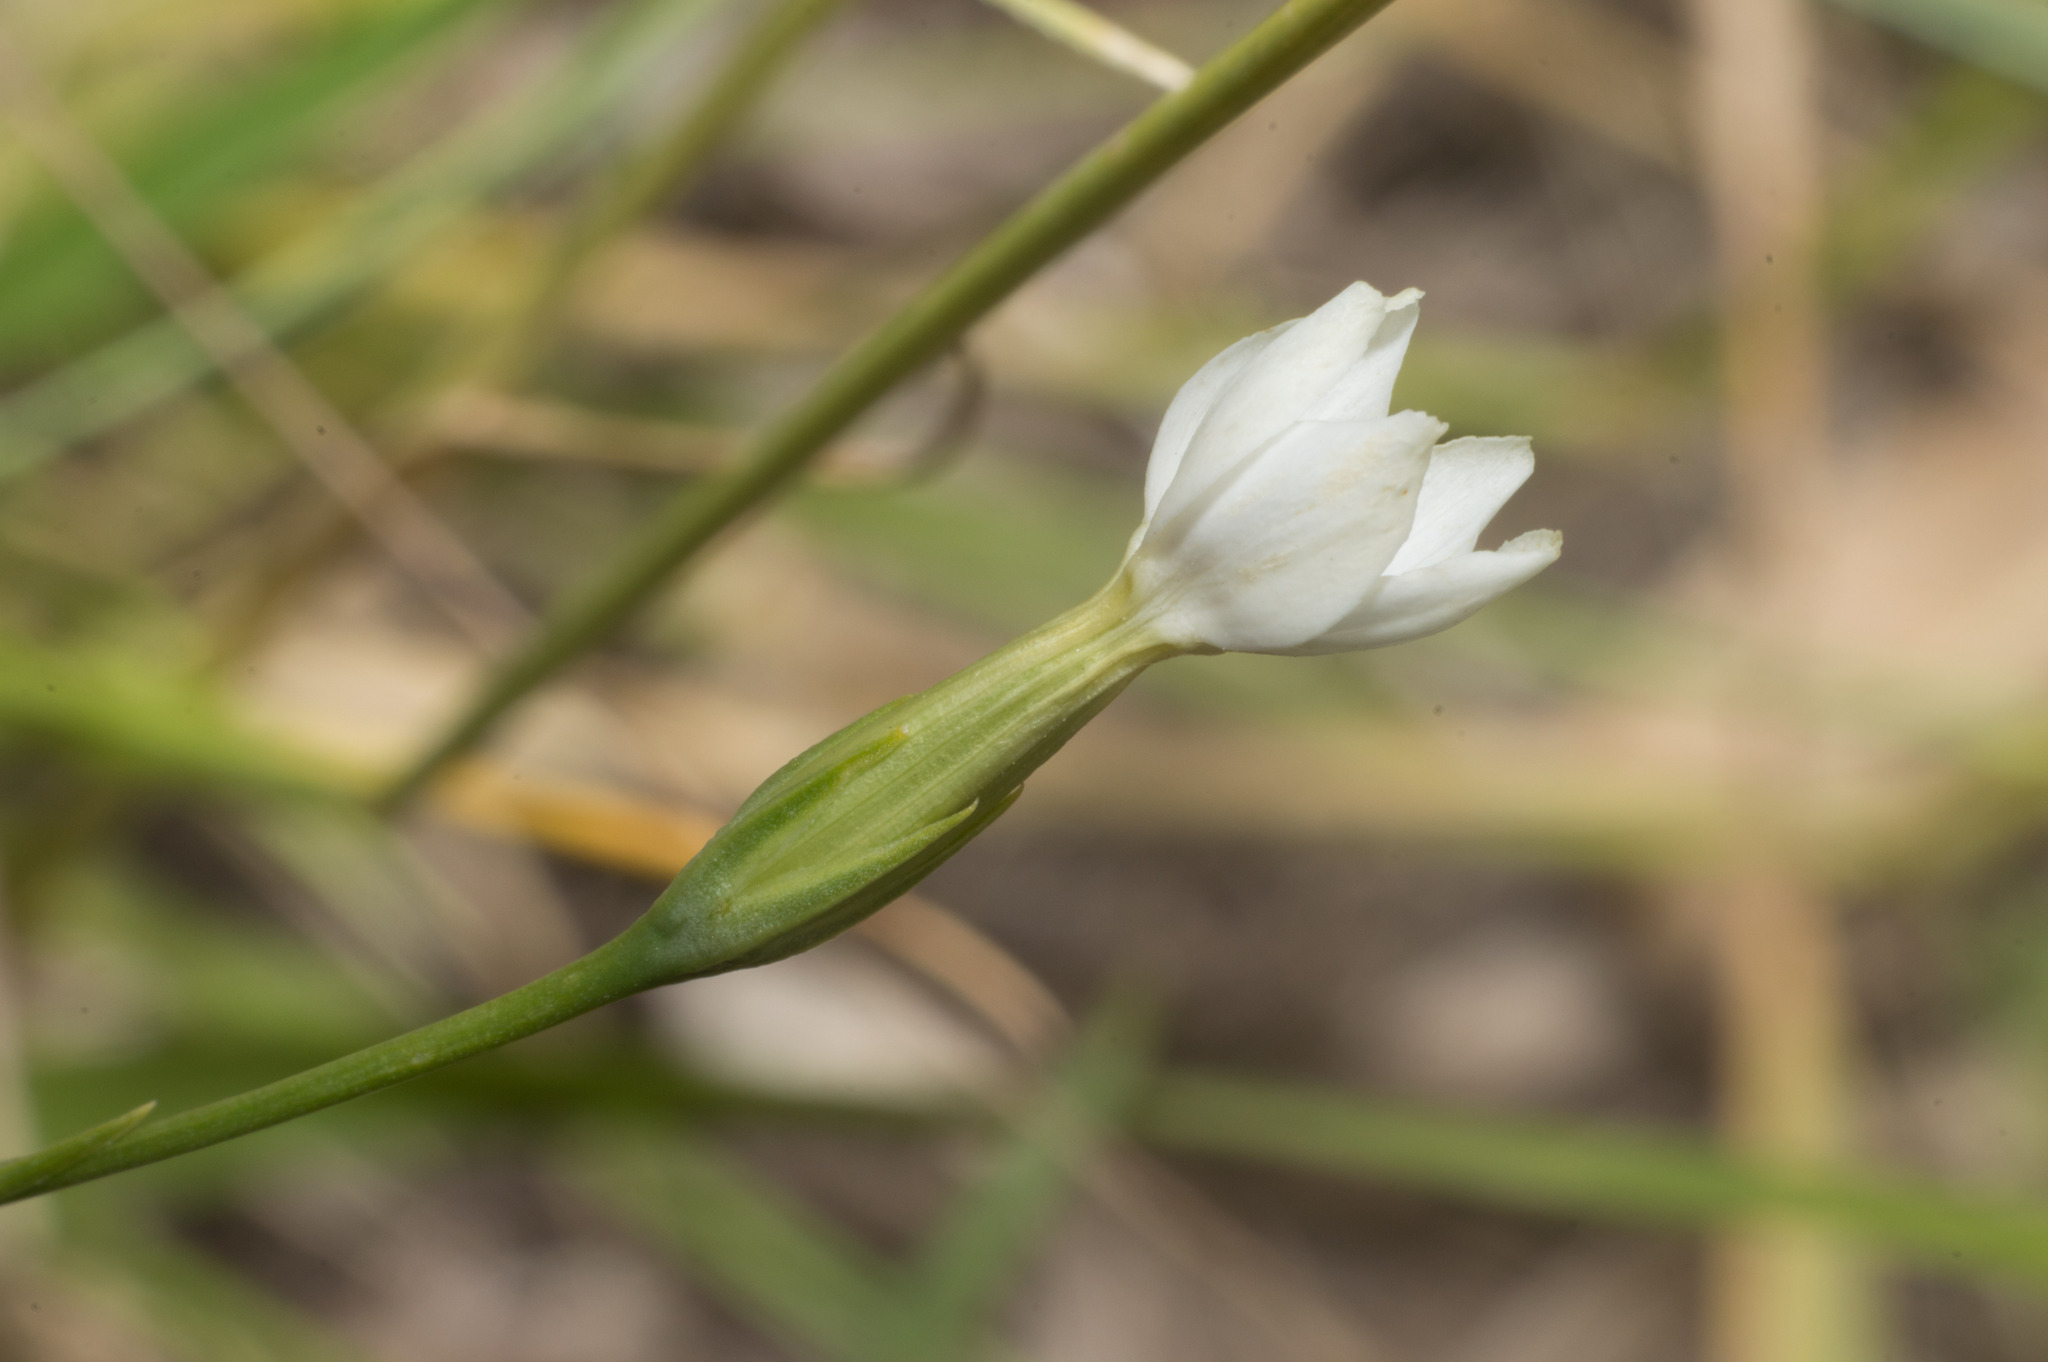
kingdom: Plantae
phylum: Tracheophyta
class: Magnoliopsida
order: Gentianales
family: Gentianaceae
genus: Zygostigma
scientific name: Zygostigma australe
